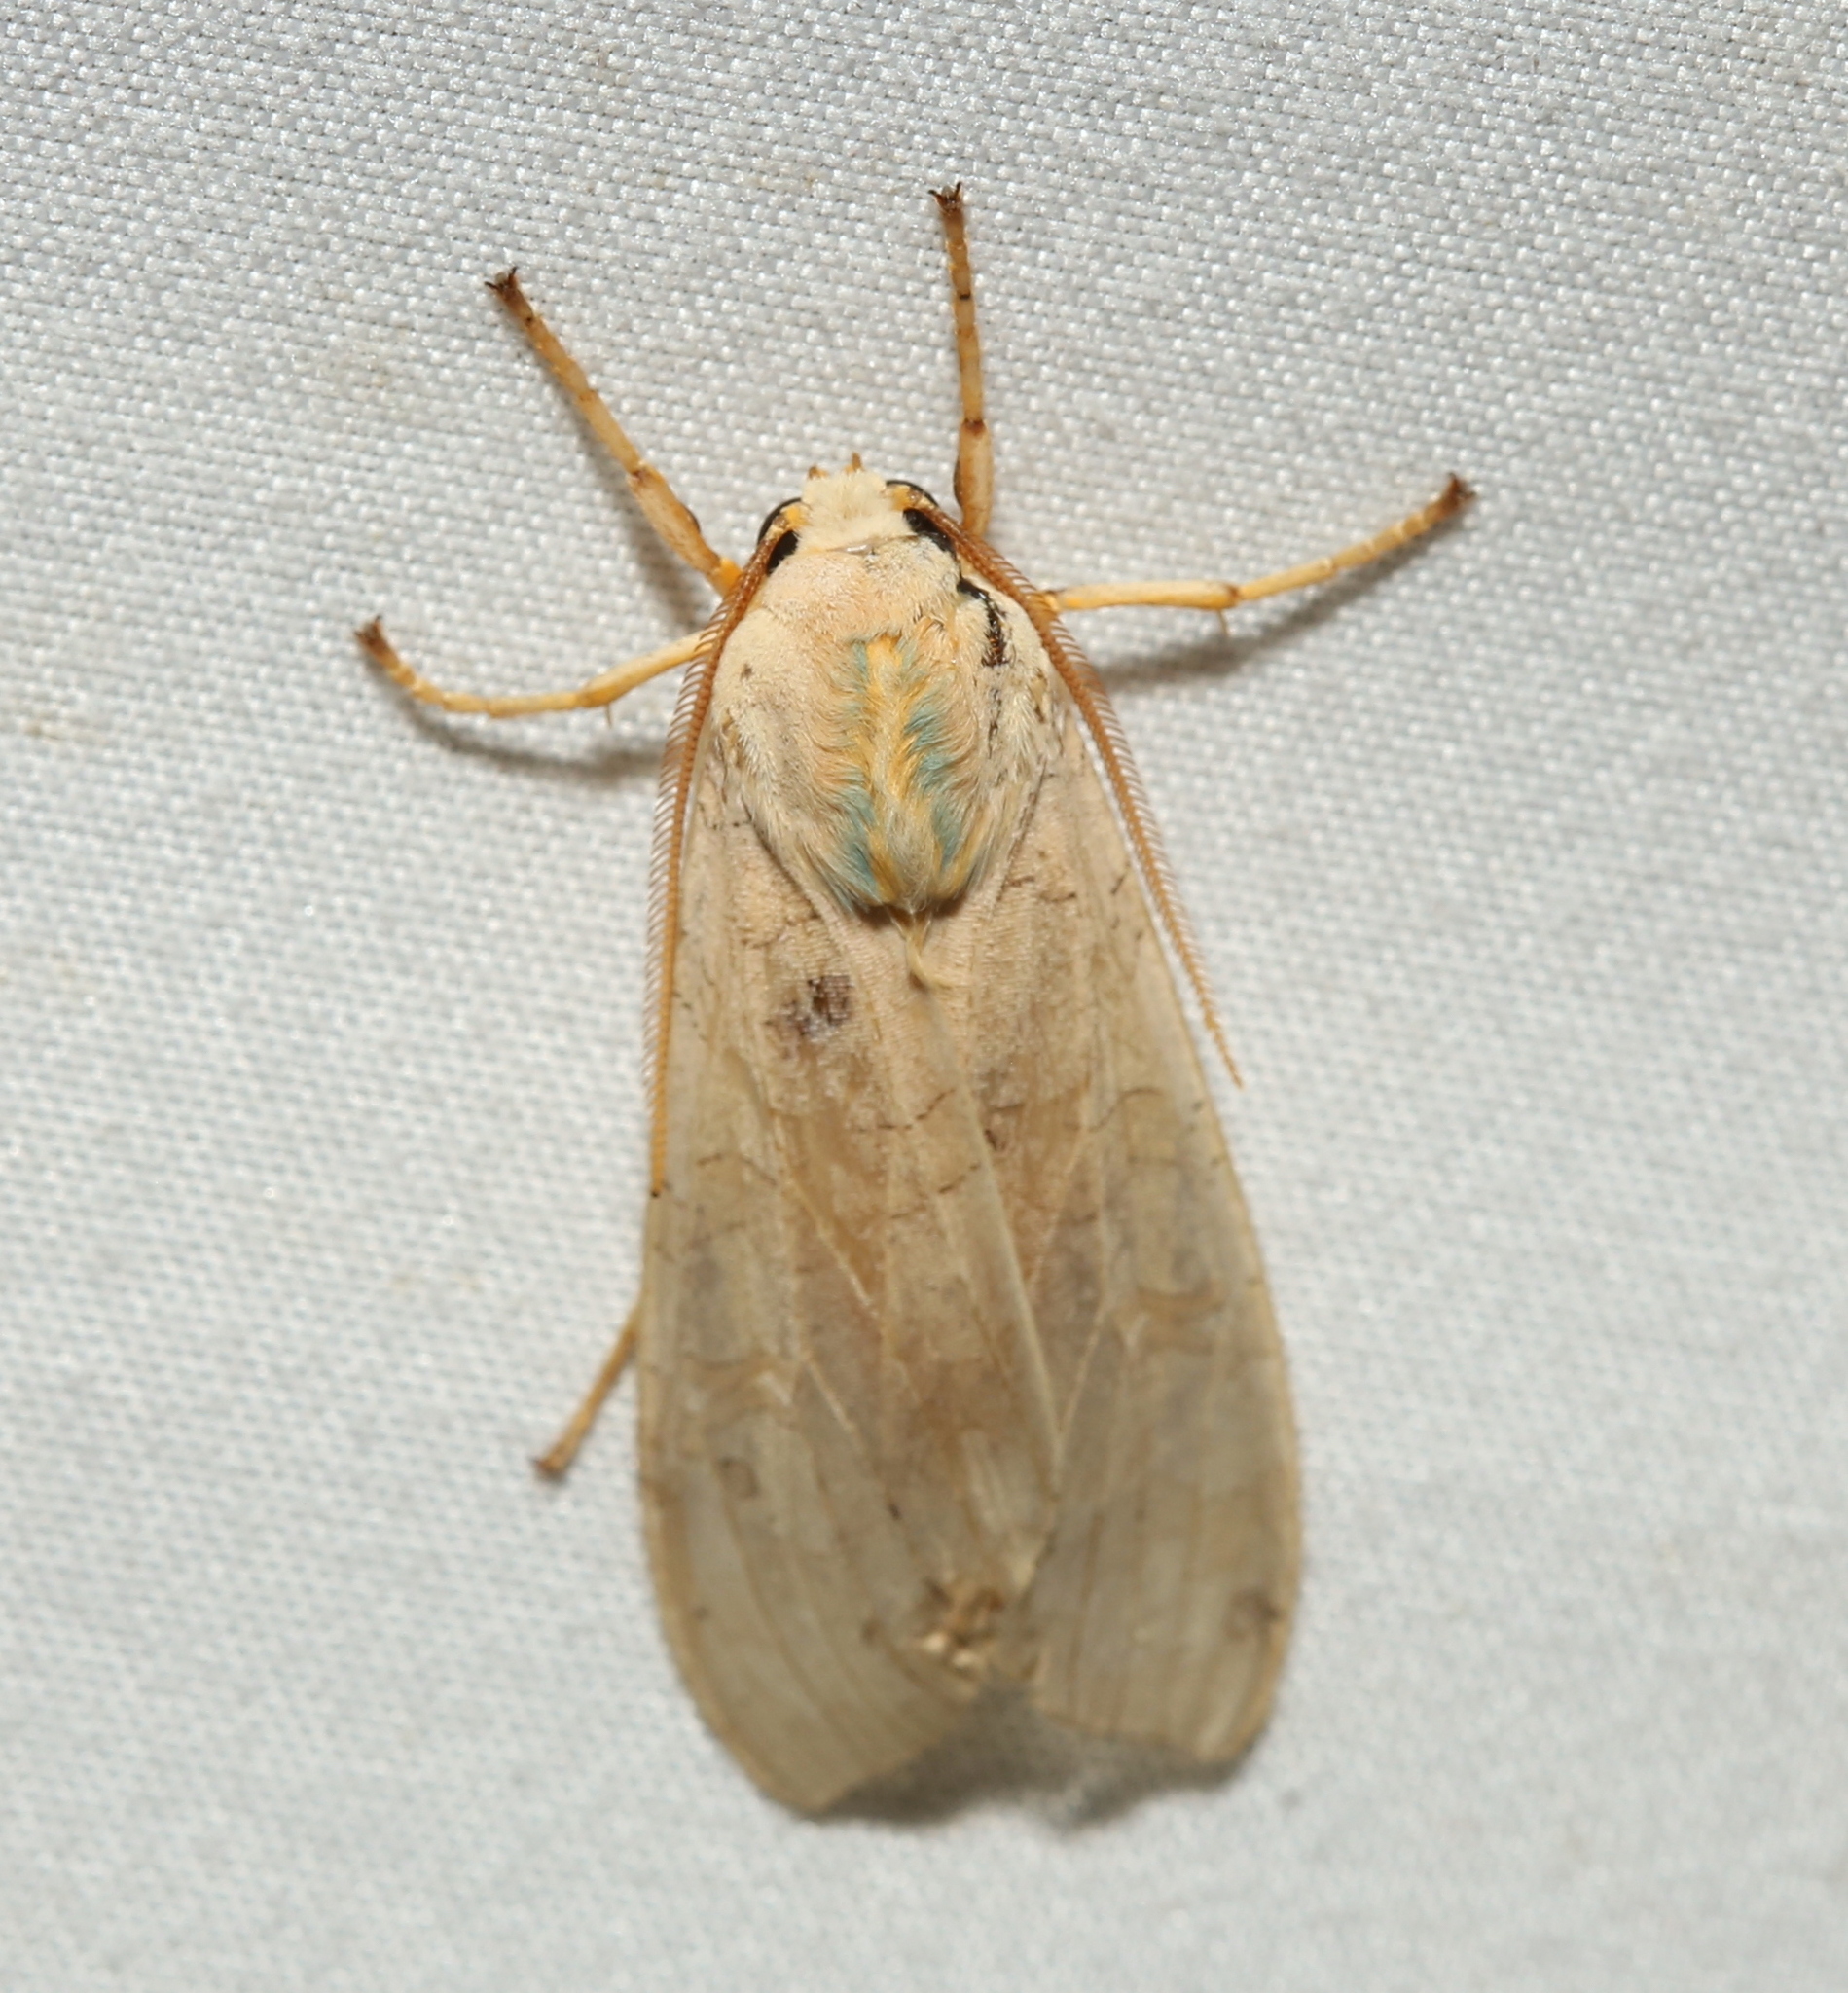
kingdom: Animalia
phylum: Arthropoda
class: Insecta
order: Lepidoptera
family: Erebidae
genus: Halysidota
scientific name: Halysidota
